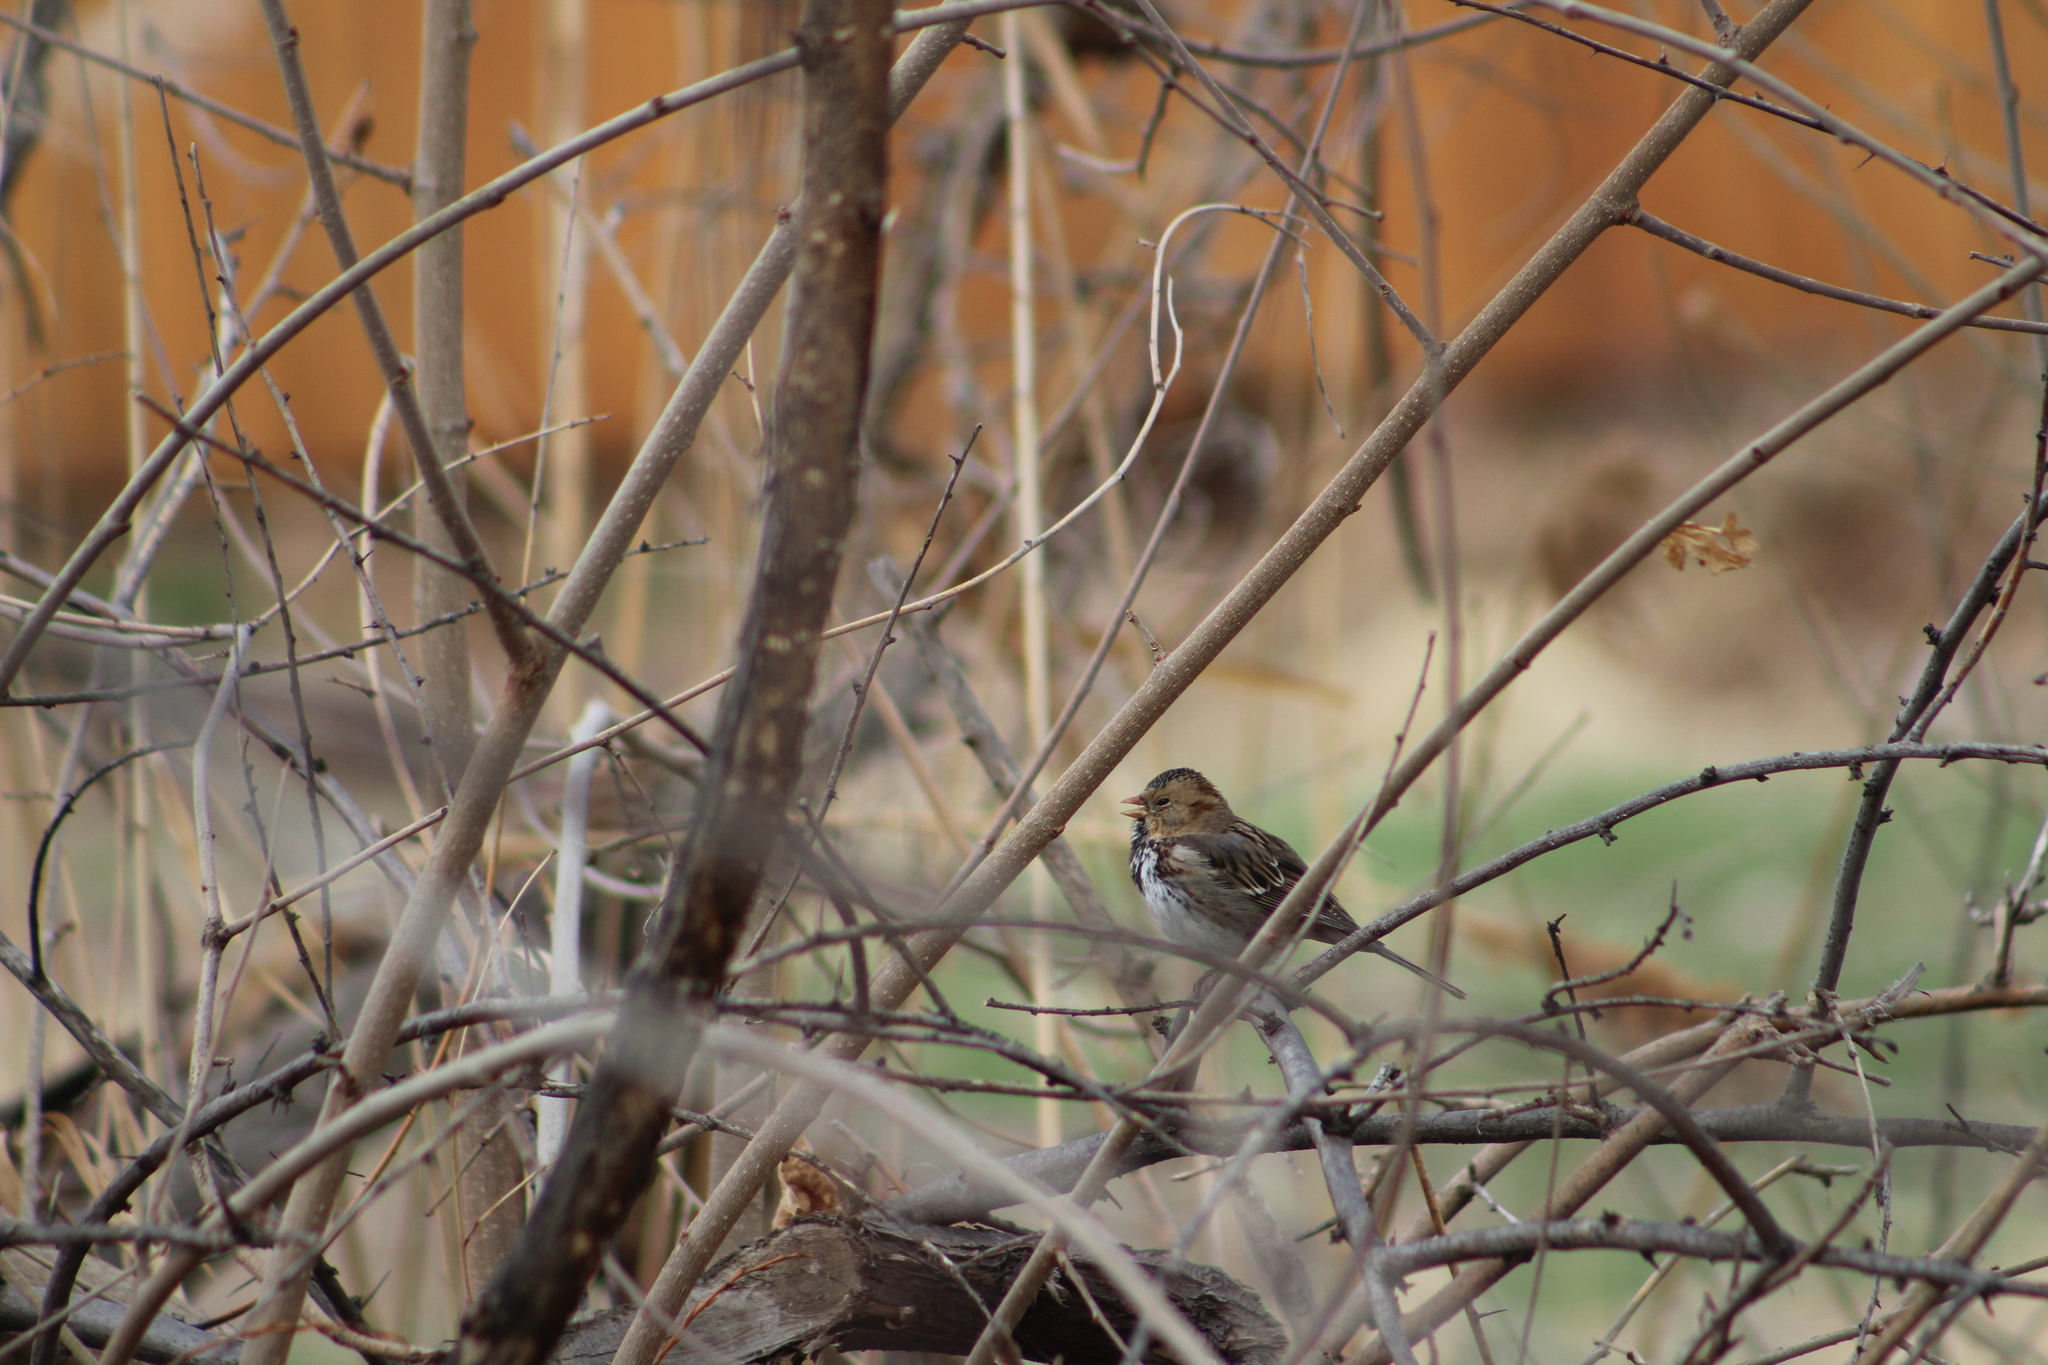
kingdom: Animalia
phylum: Chordata
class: Aves
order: Passeriformes
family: Passerellidae
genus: Zonotrichia
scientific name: Zonotrichia querula
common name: Harris's sparrow
